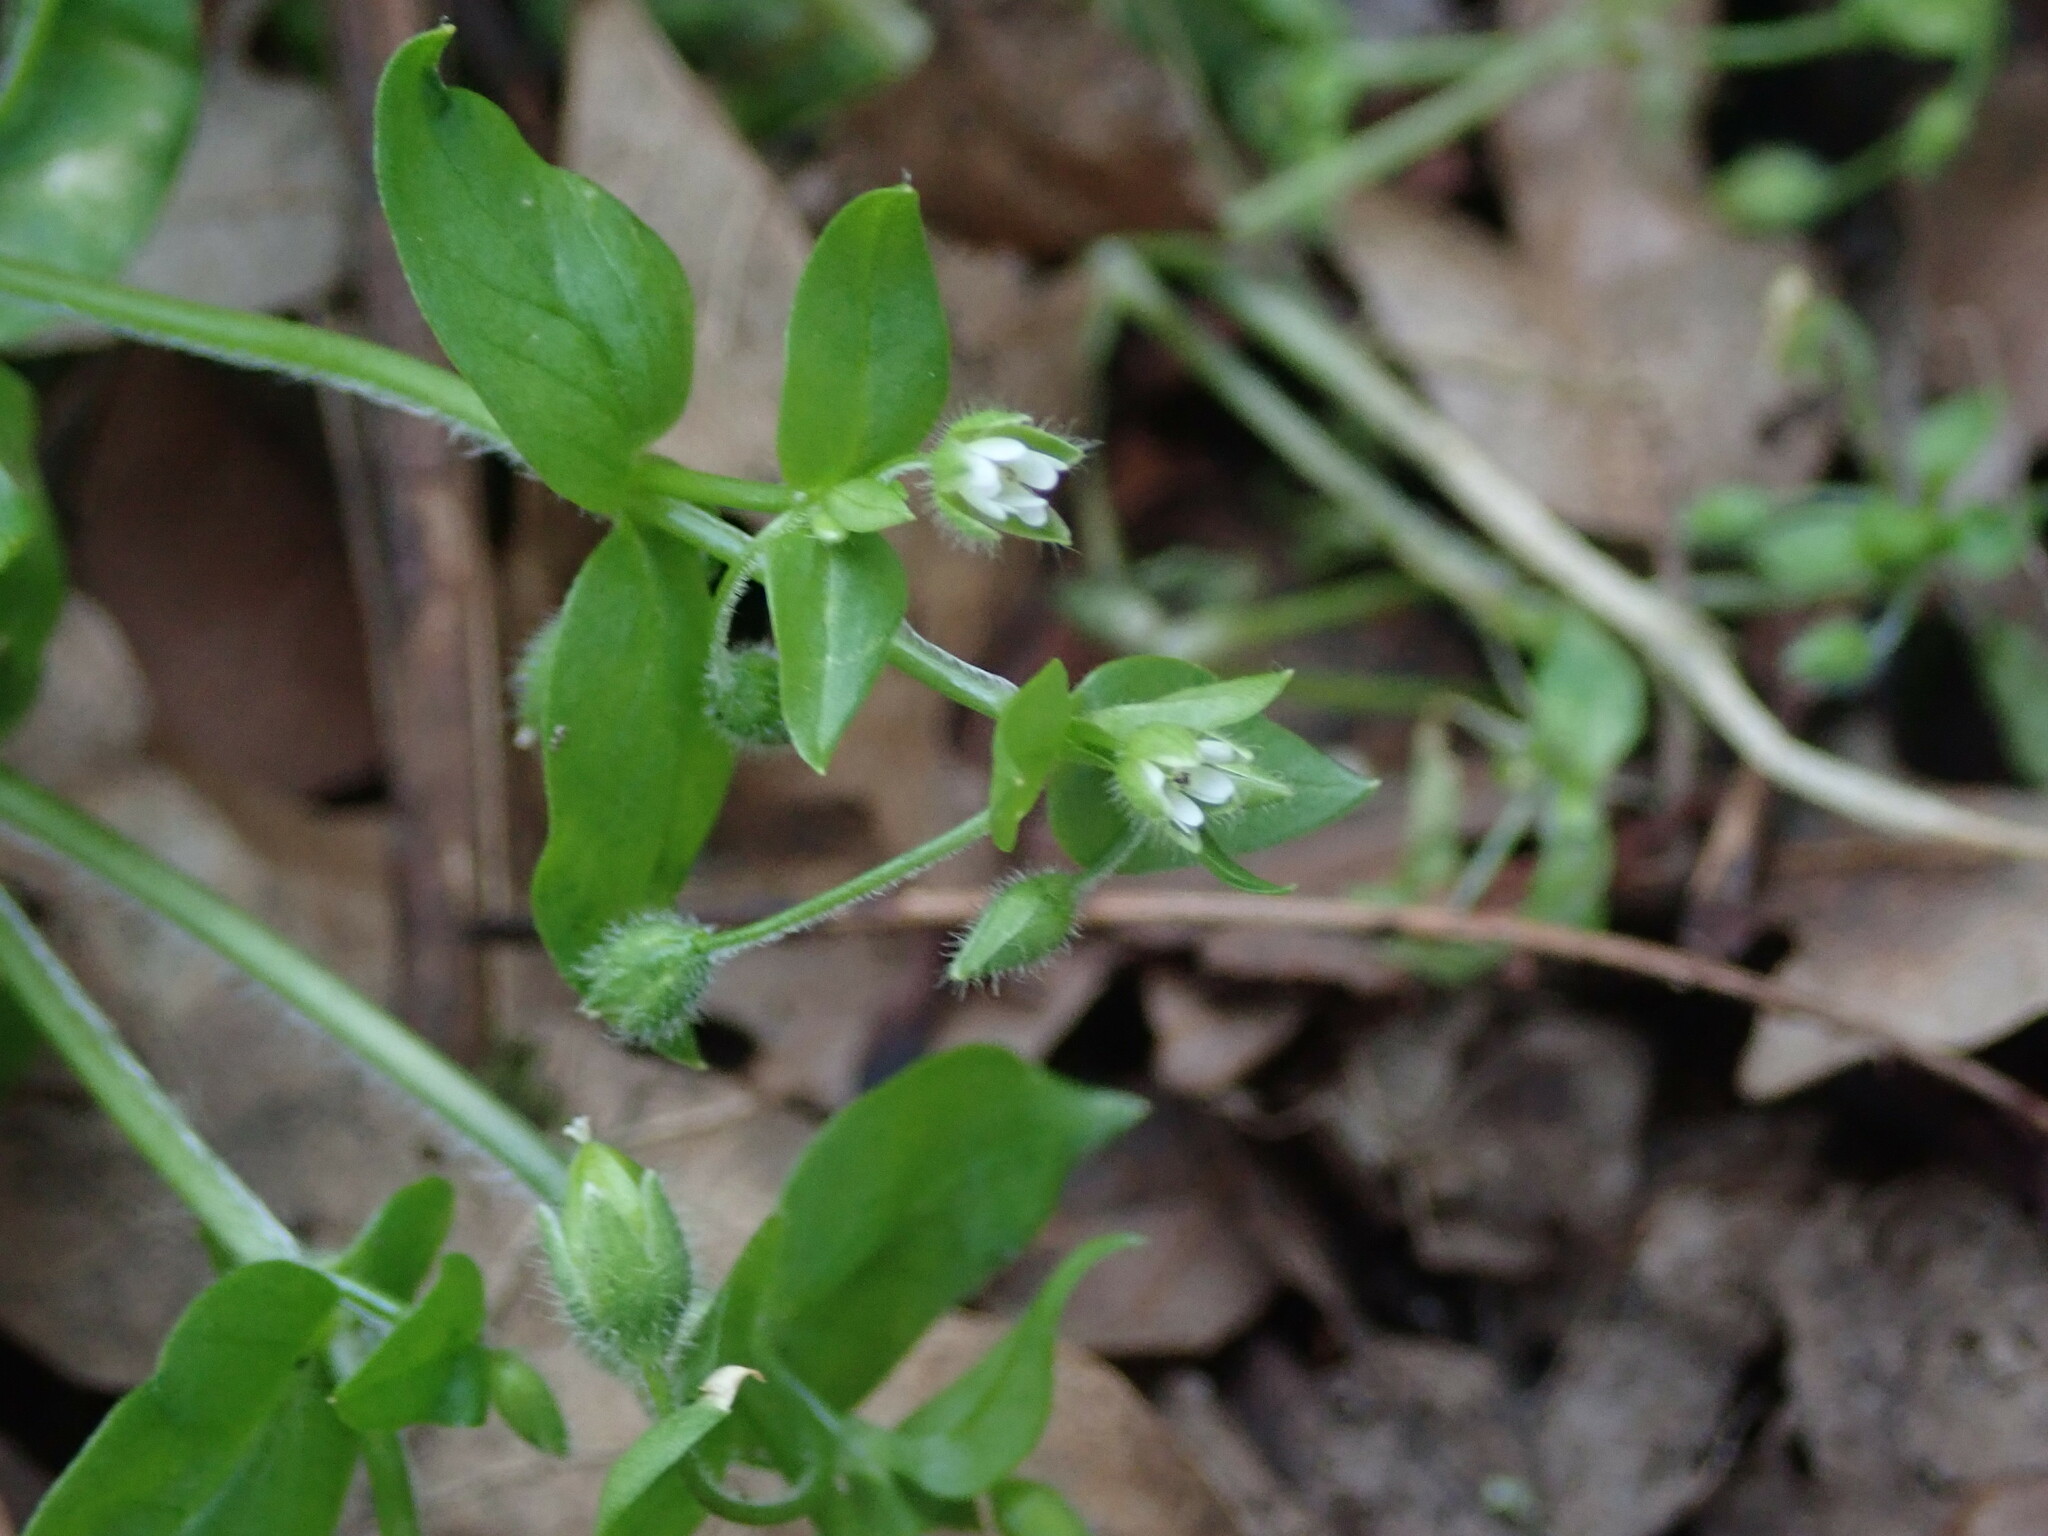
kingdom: Plantae
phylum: Tracheophyta
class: Magnoliopsida
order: Caryophyllales
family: Caryophyllaceae
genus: Stellaria
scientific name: Stellaria media
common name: Common chickweed
